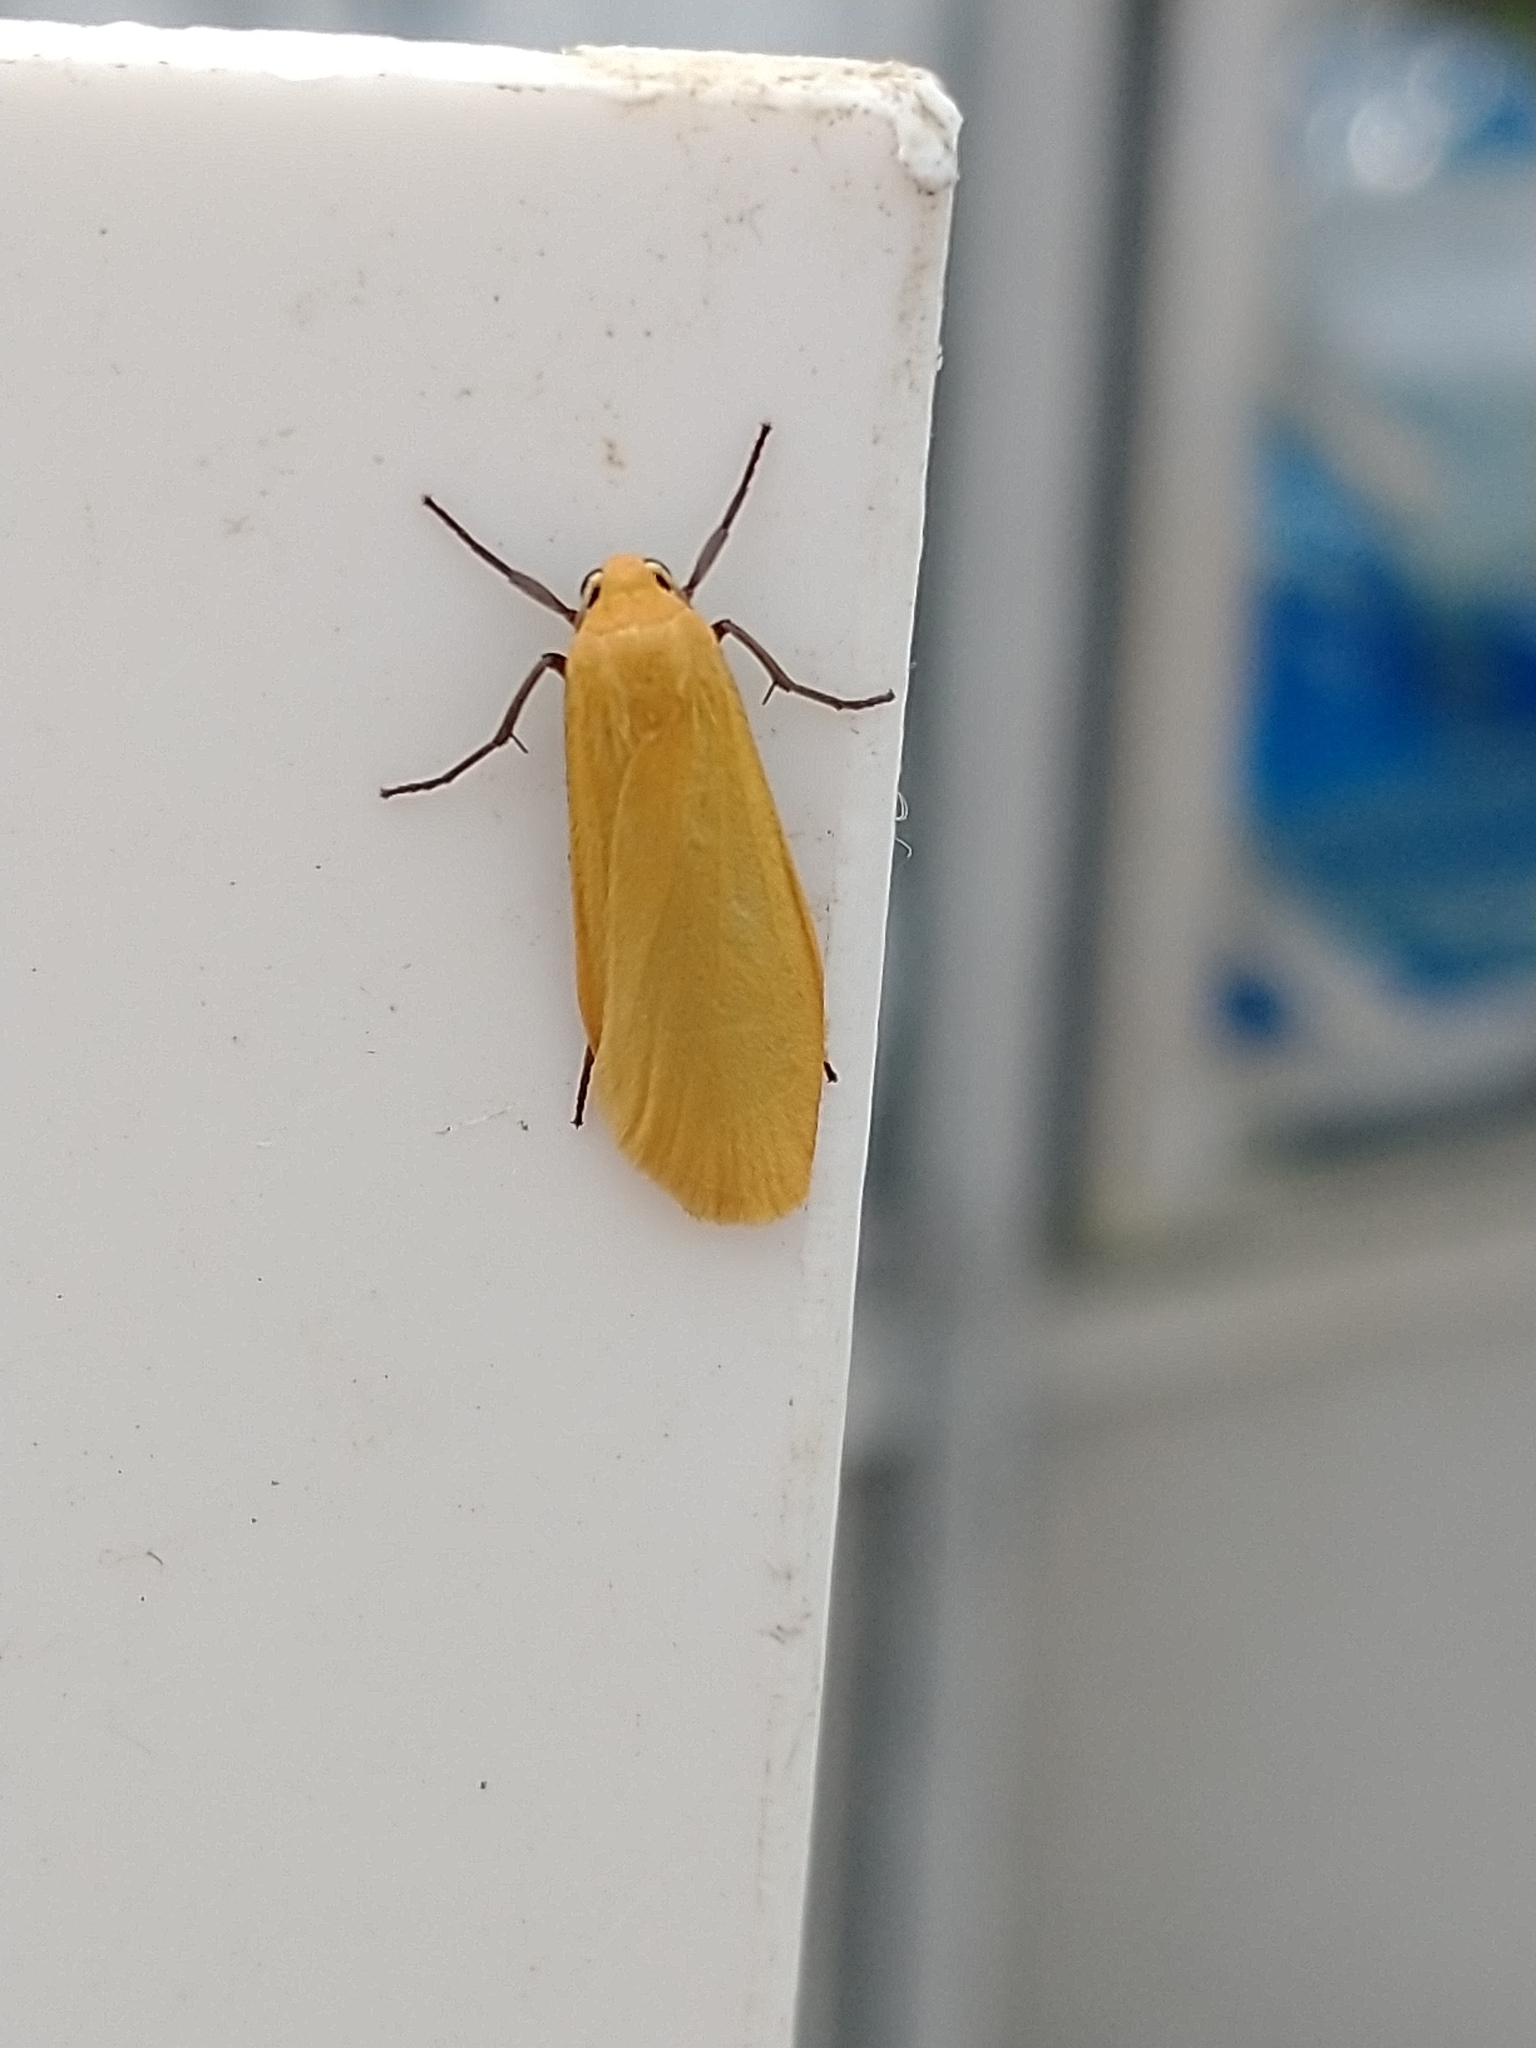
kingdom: Animalia
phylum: Arthropoda
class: Insecta
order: Lepidoptera
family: Erebidae
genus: Wittia
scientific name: Wittia sororcula
